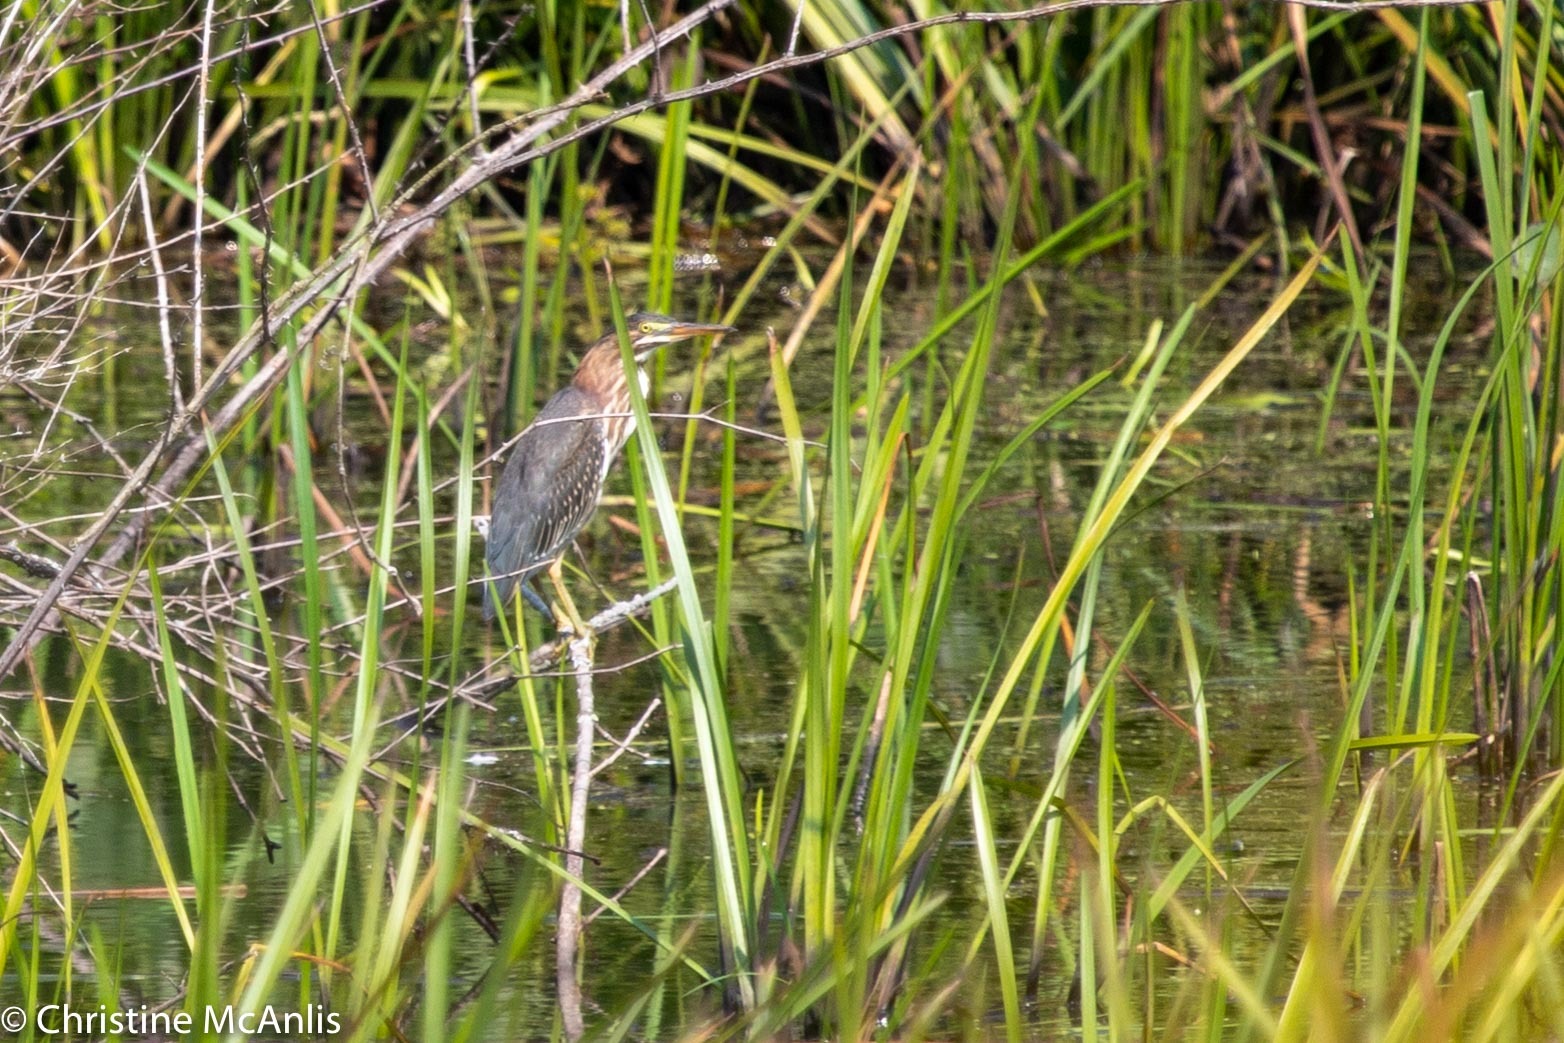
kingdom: Animalia
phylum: Chordata
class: Aves
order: Pelecaniformes
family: Ardeidae
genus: Butorides
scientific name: Butorides virescens
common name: Green heron
